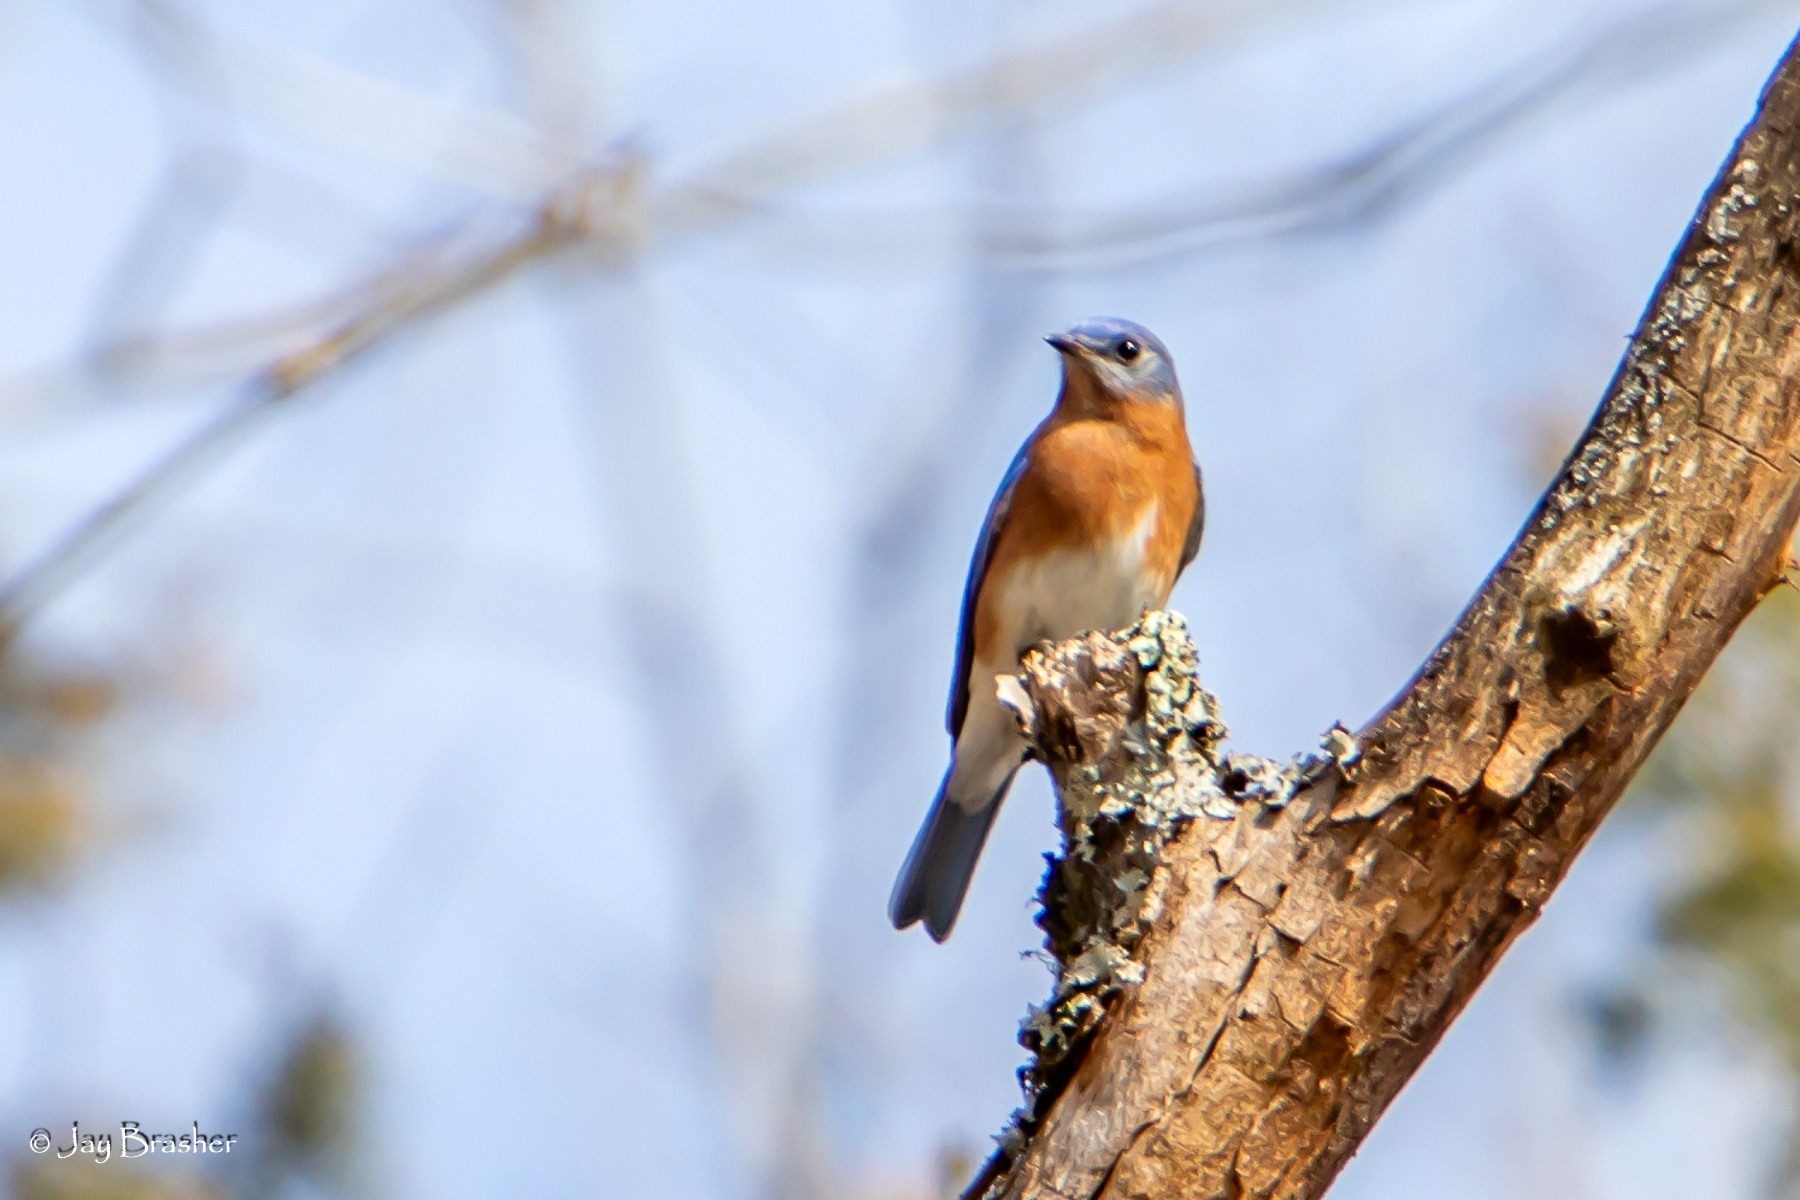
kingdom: Animalia
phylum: Chordata
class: Aves
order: Passeriformes
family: Turdidae
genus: Sialia
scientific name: Sialia sialis
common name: Eastern bluebird
